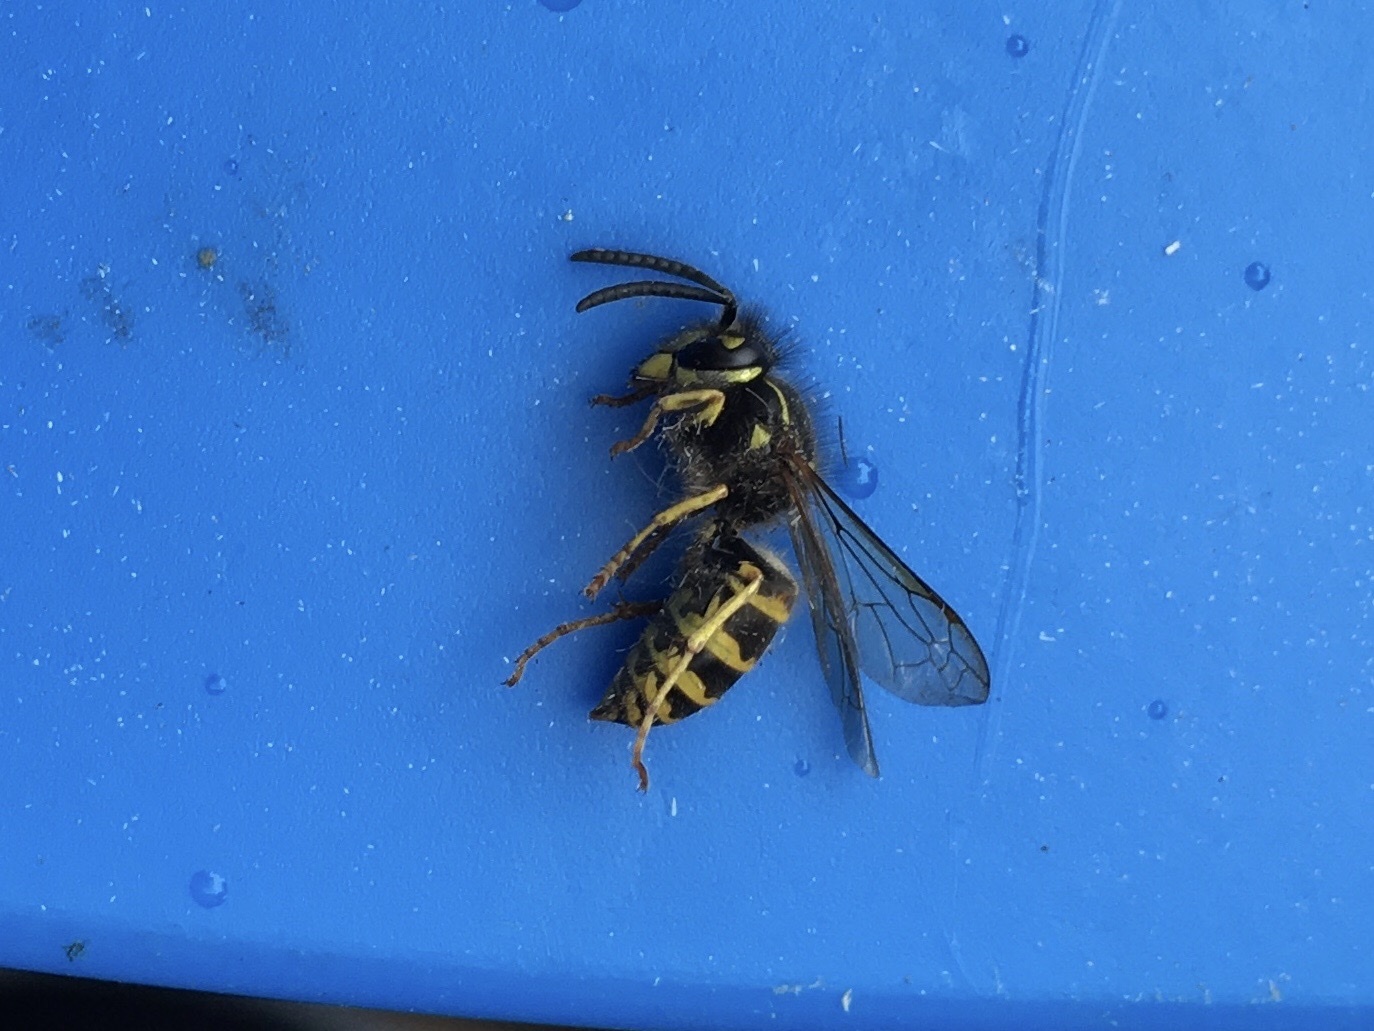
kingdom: Animalia
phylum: Arthropoda
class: Insecta
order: Hymenoptera
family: Vespidae
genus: Vespula
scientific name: Vespula alascensis
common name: Alaska yellowjacket
